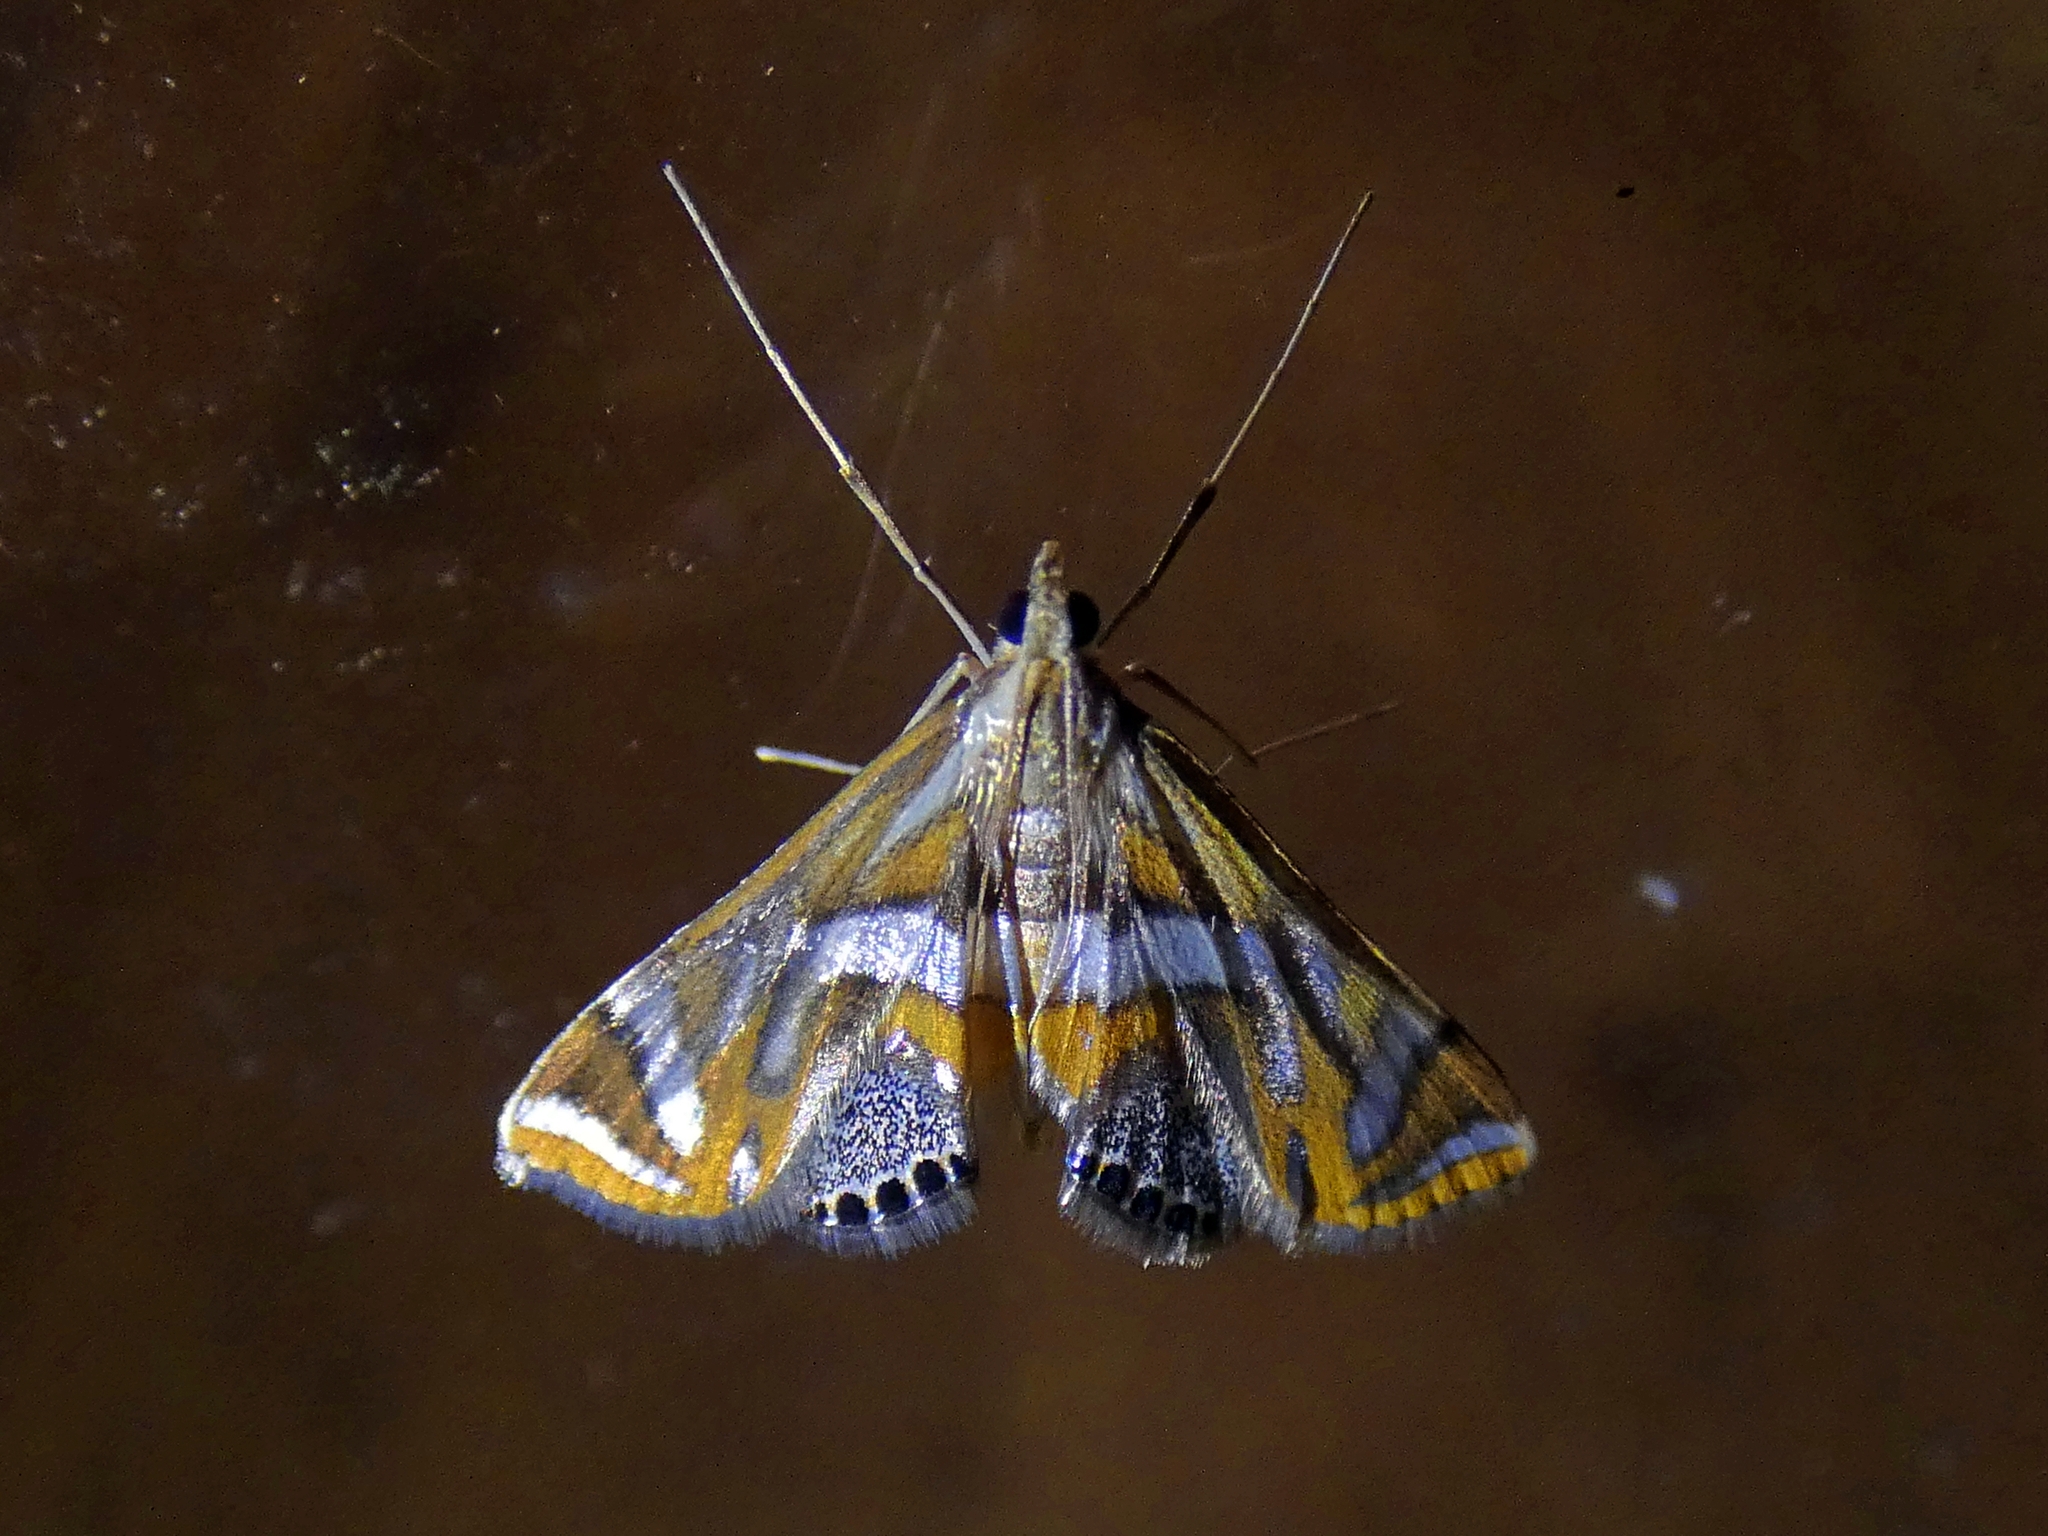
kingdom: Animalia
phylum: Arthropoda
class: Insecta
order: Lepidoptera
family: Crambidae
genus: Margarosticha
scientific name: Margarosticha euprepialis
